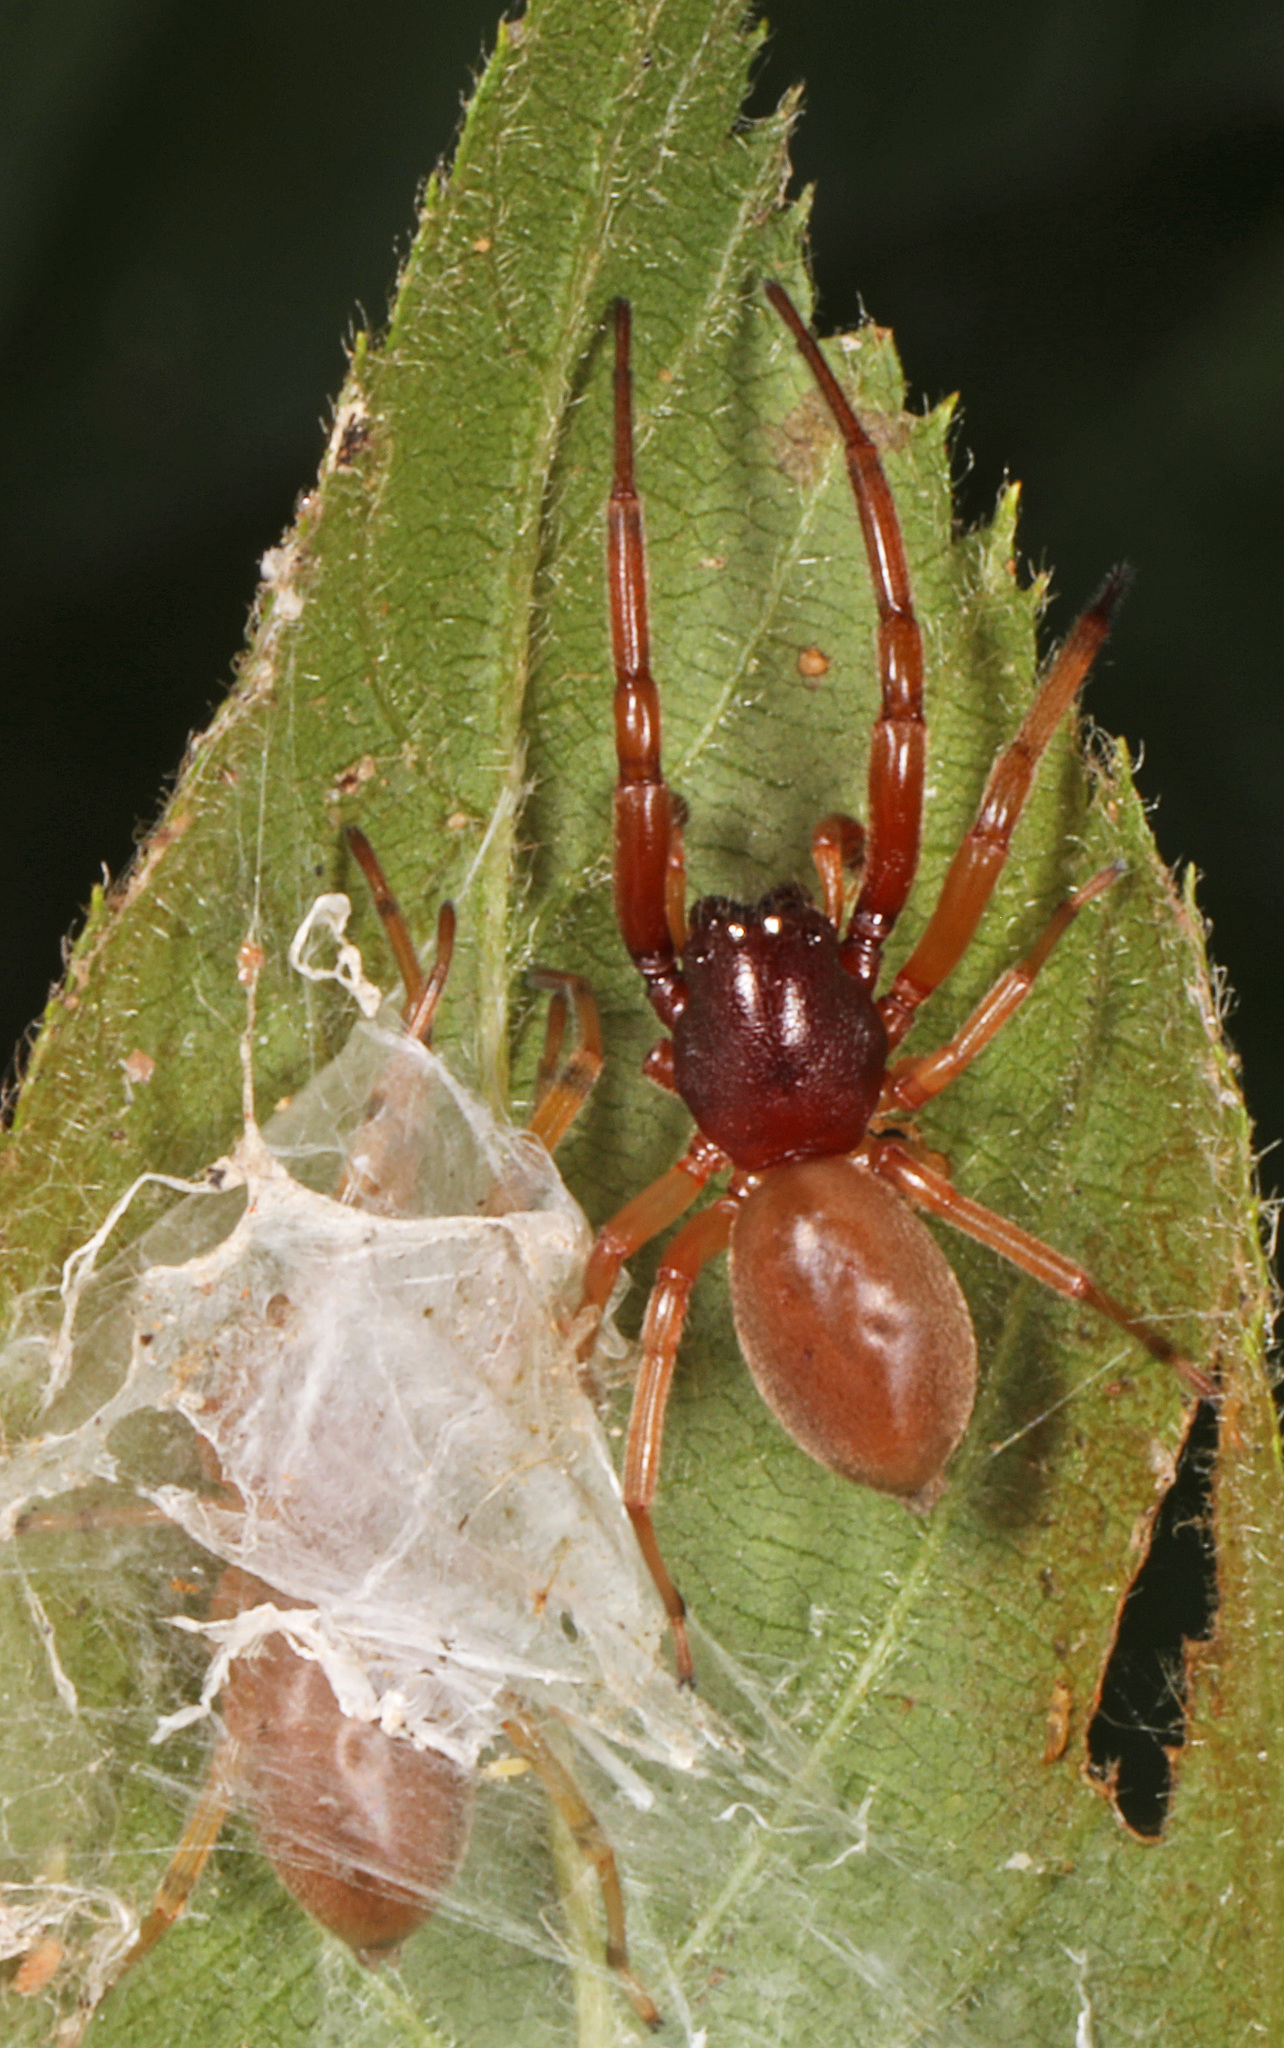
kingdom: Animalia
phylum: Arthropoda
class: Arachnida
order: Araneae
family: Trachelidae
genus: Trachelas
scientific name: Trachelas tranquillus
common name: Broad-faced sac spider
